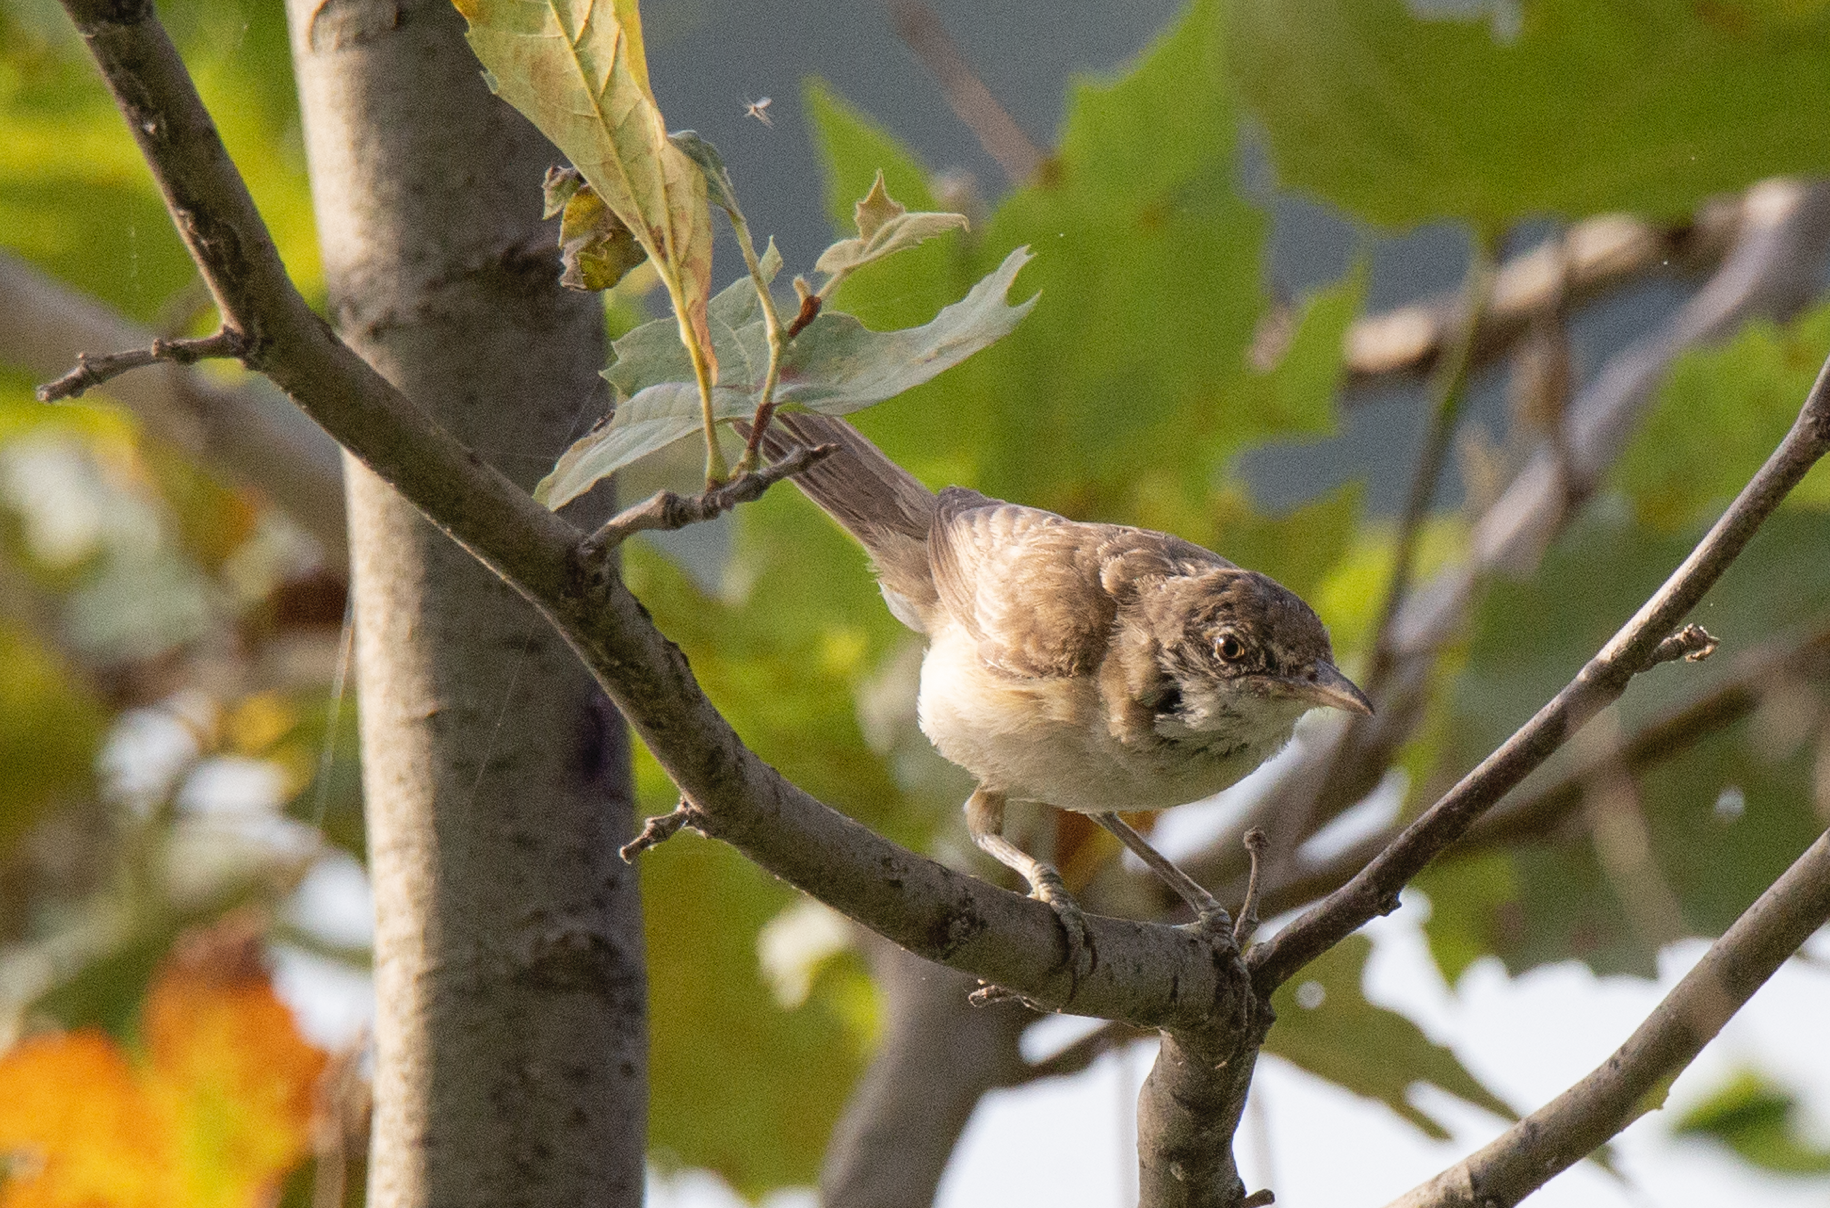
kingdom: Animalia
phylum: Chordata
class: Aves
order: Passeriformes
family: Acrocephalidae
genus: Acrocephalus
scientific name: Acrocephalus arundinaceus
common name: Great reed warbler
